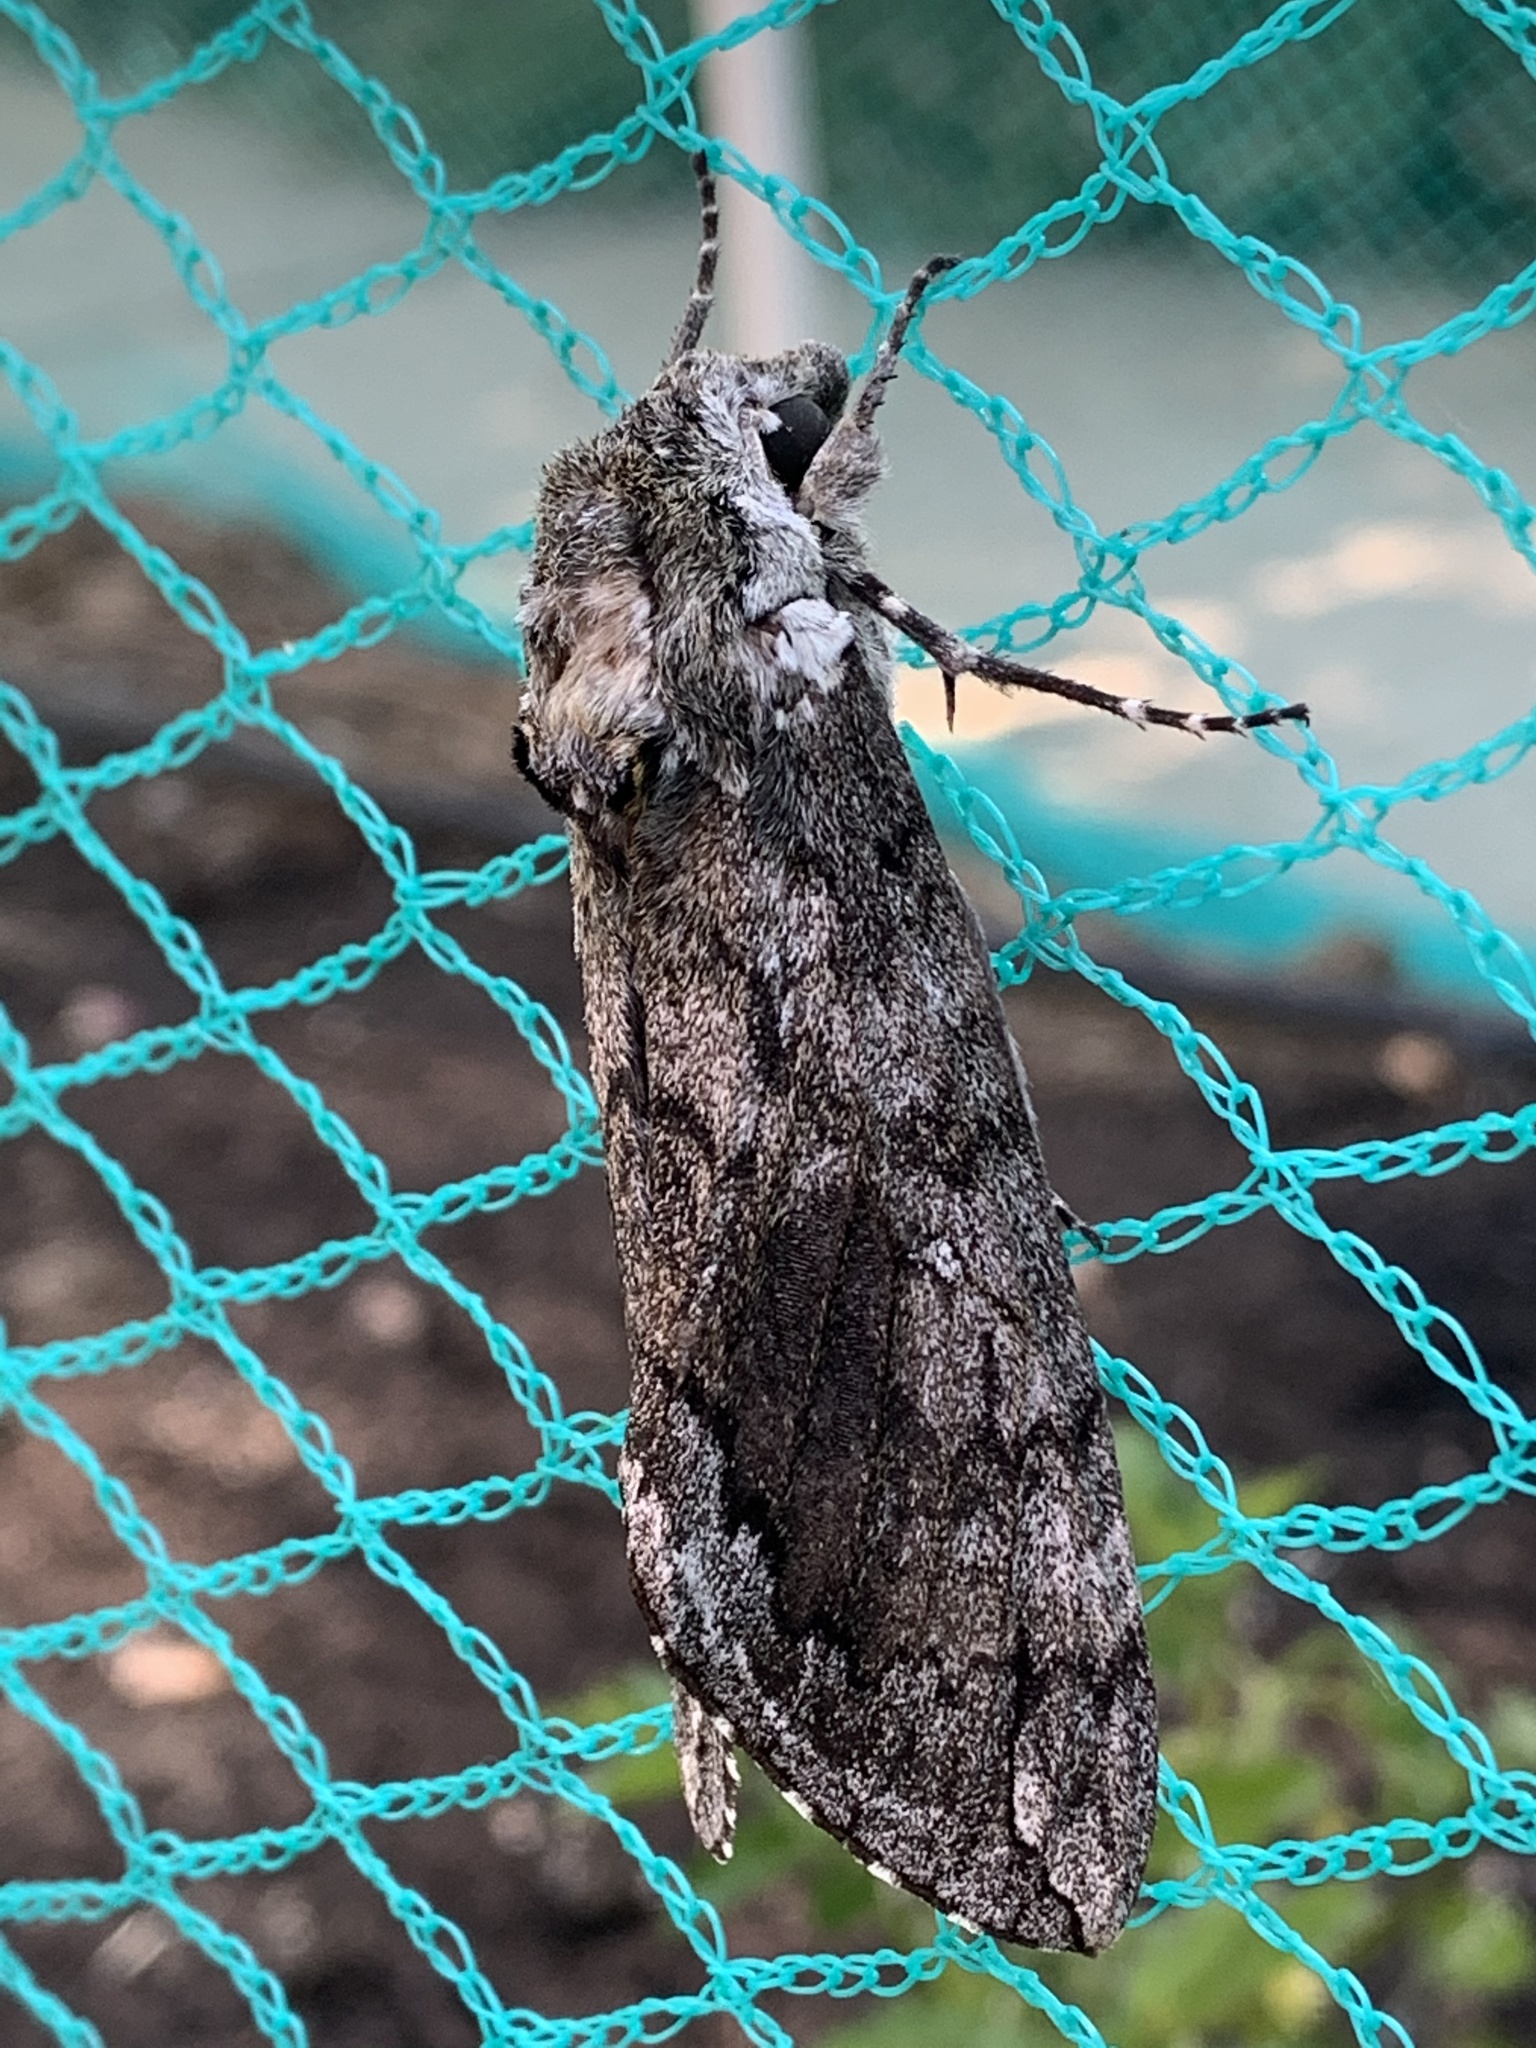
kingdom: Animalia
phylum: Arthropoda
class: Insecta
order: Lepidoptera
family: Sphingidae
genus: Manduca
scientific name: Manduca sexta
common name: Carolina sphinx
